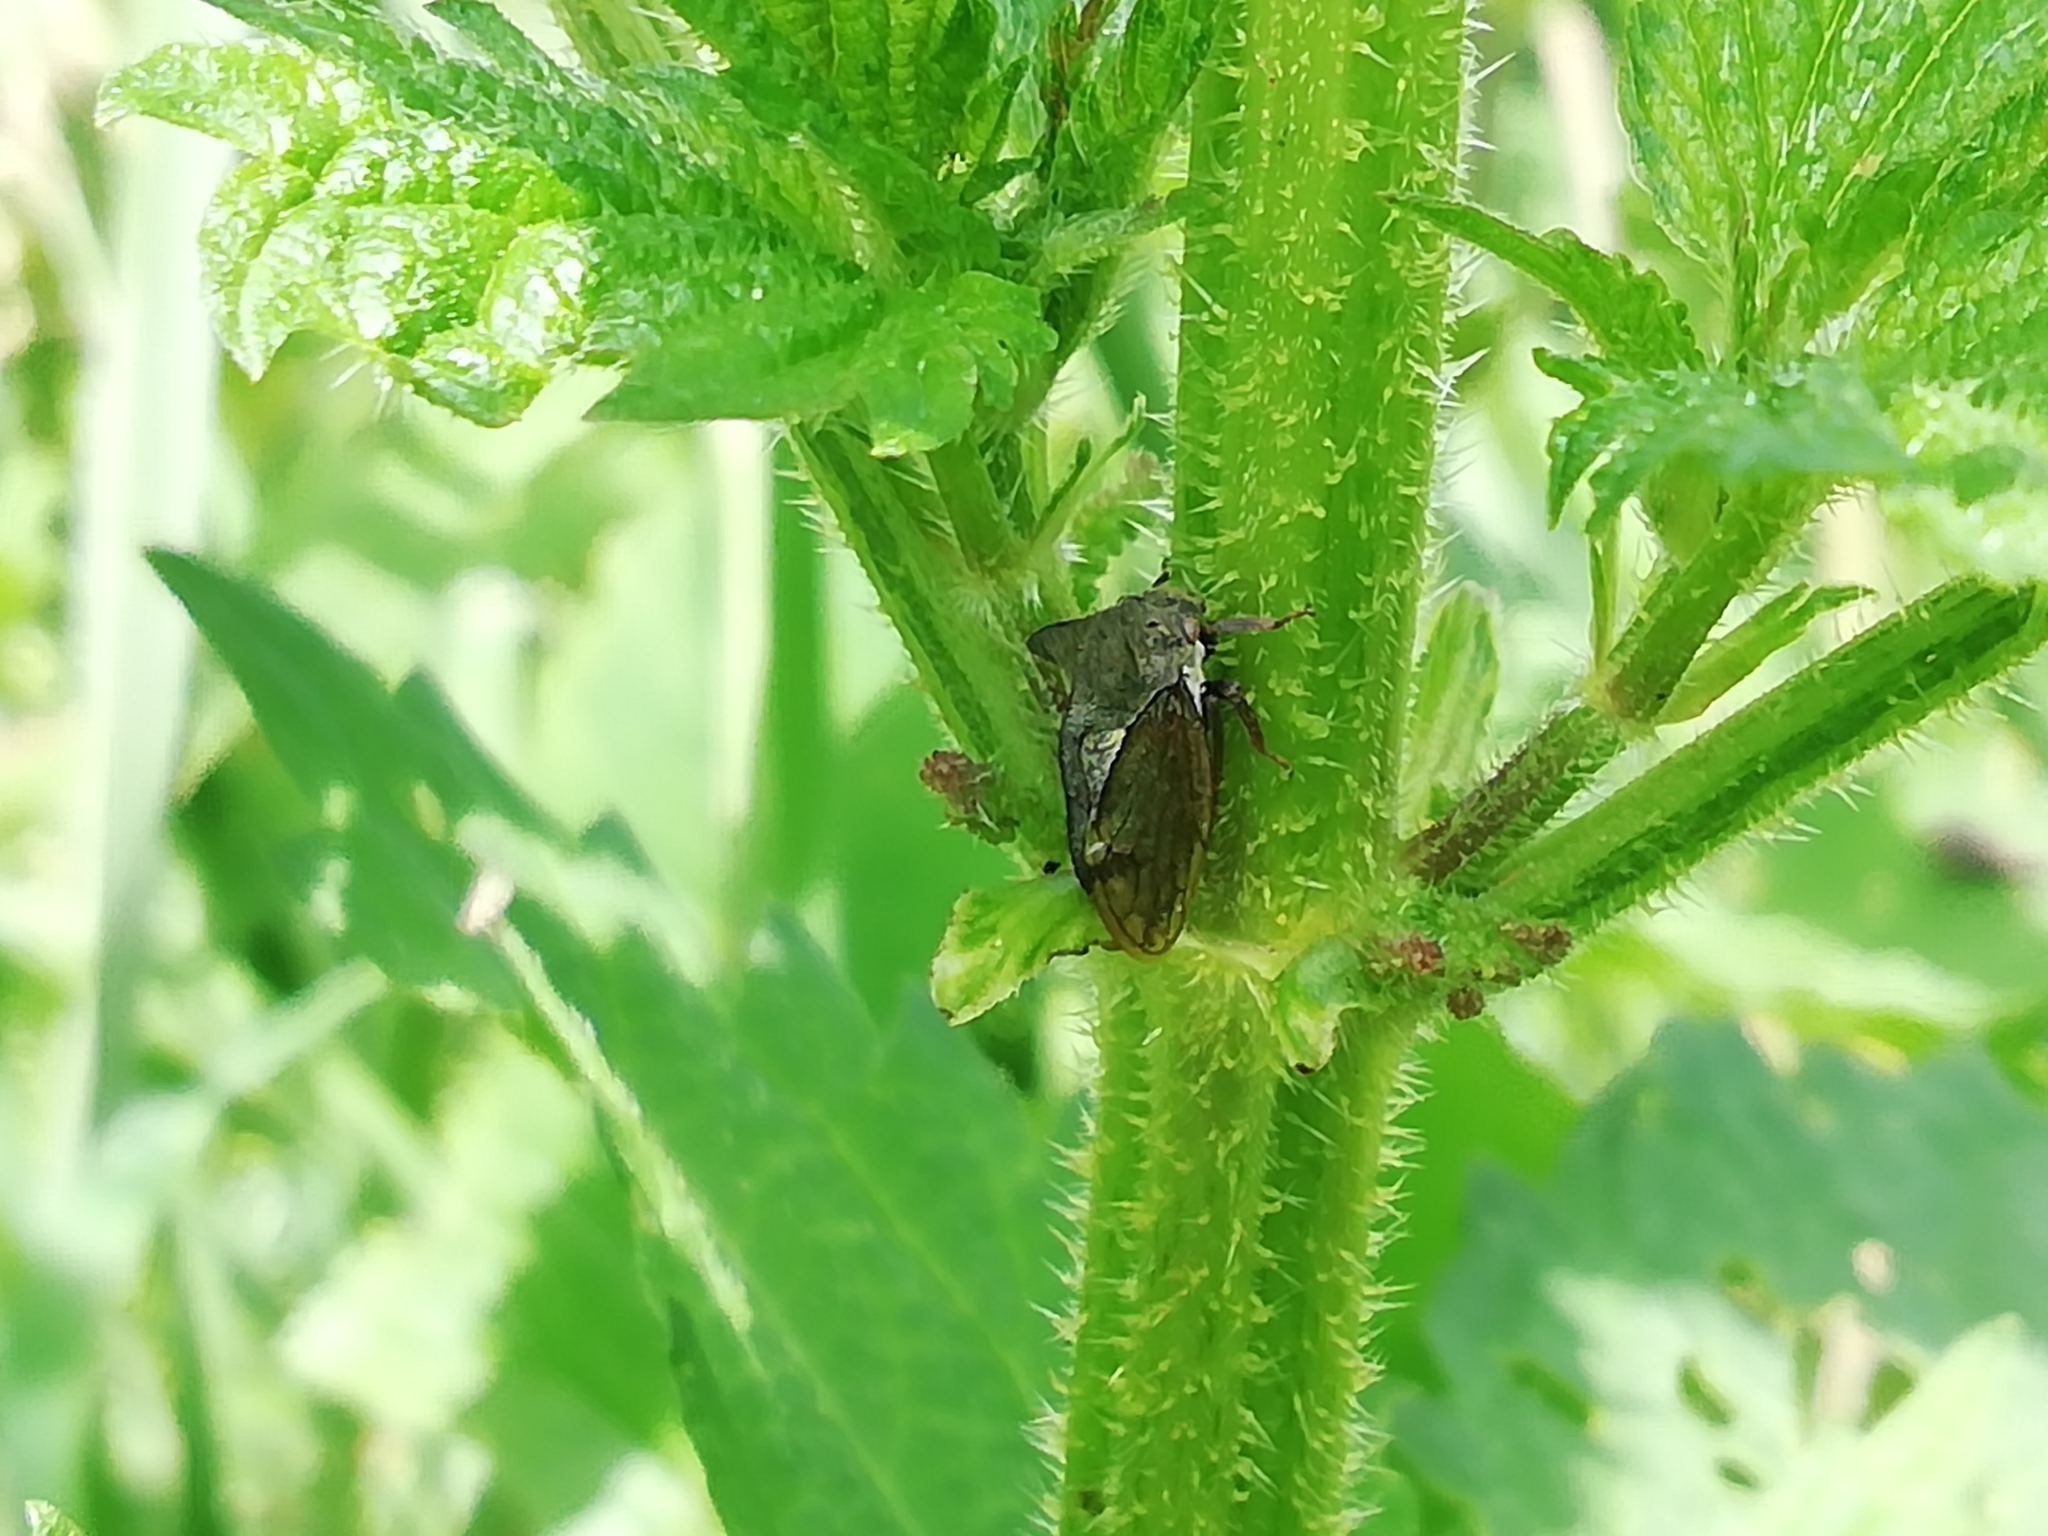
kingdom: Animalia
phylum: Arthropoda
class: Insecta
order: Hemiptera
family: Membracidae
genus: Centrotus
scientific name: Centrotus cornuta
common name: Treehopper
